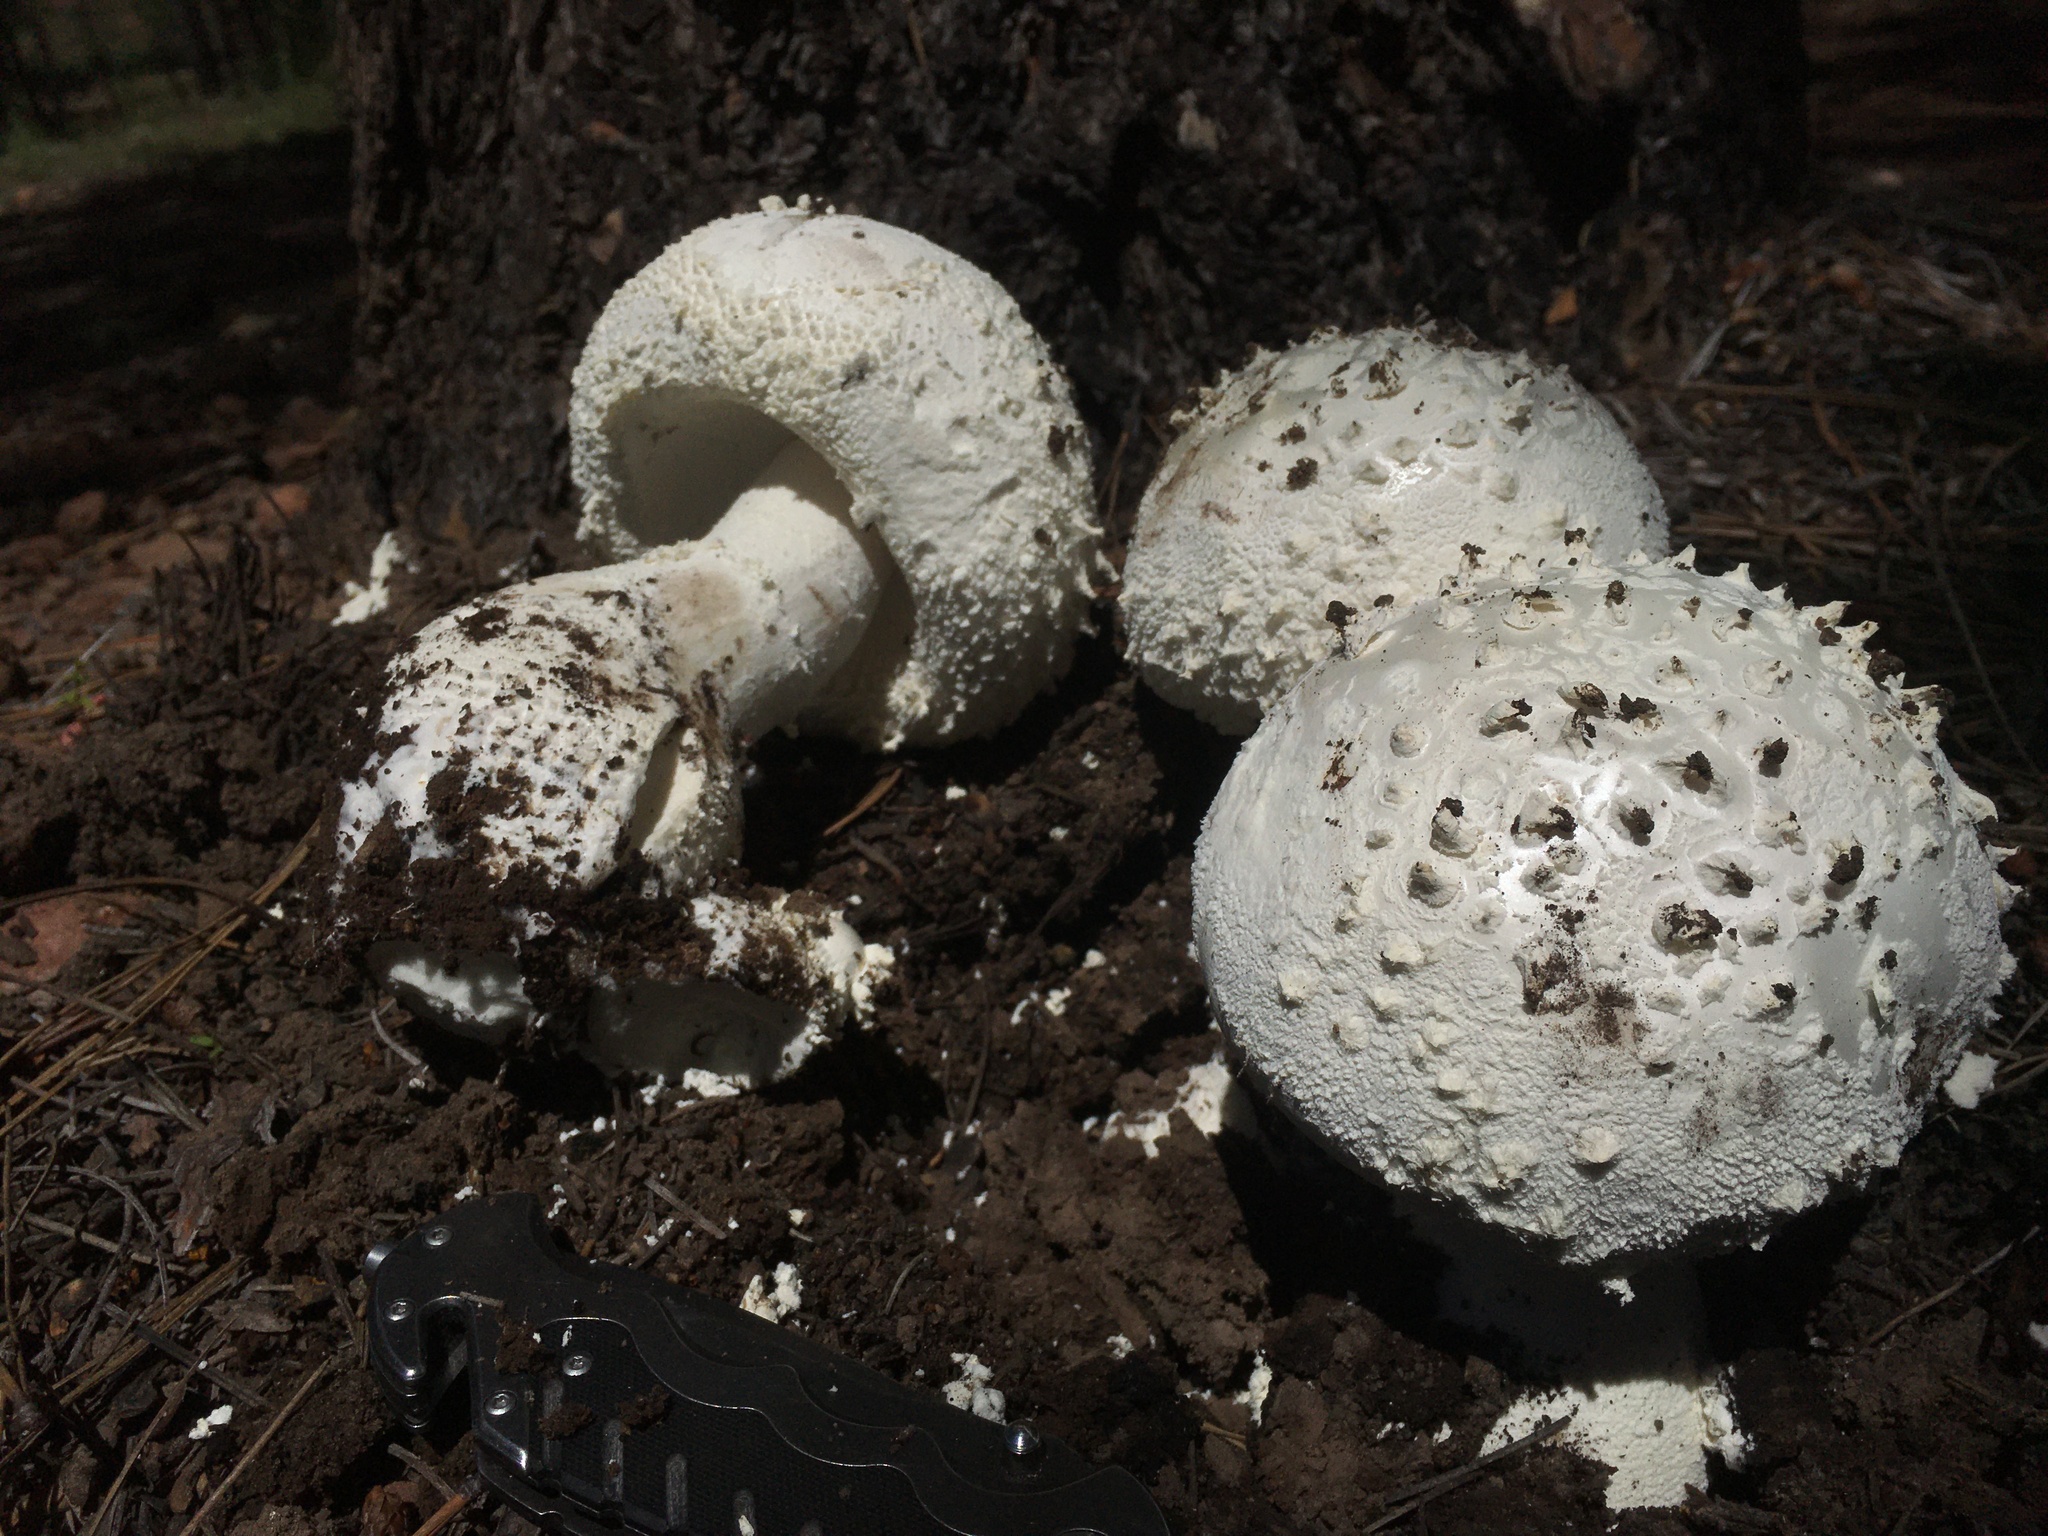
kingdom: Fungi
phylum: Basidiomycota
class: Agaricomycetes
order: Agaricales
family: Amanitaceae
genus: Amanita
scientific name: Amanita magniverrucata
